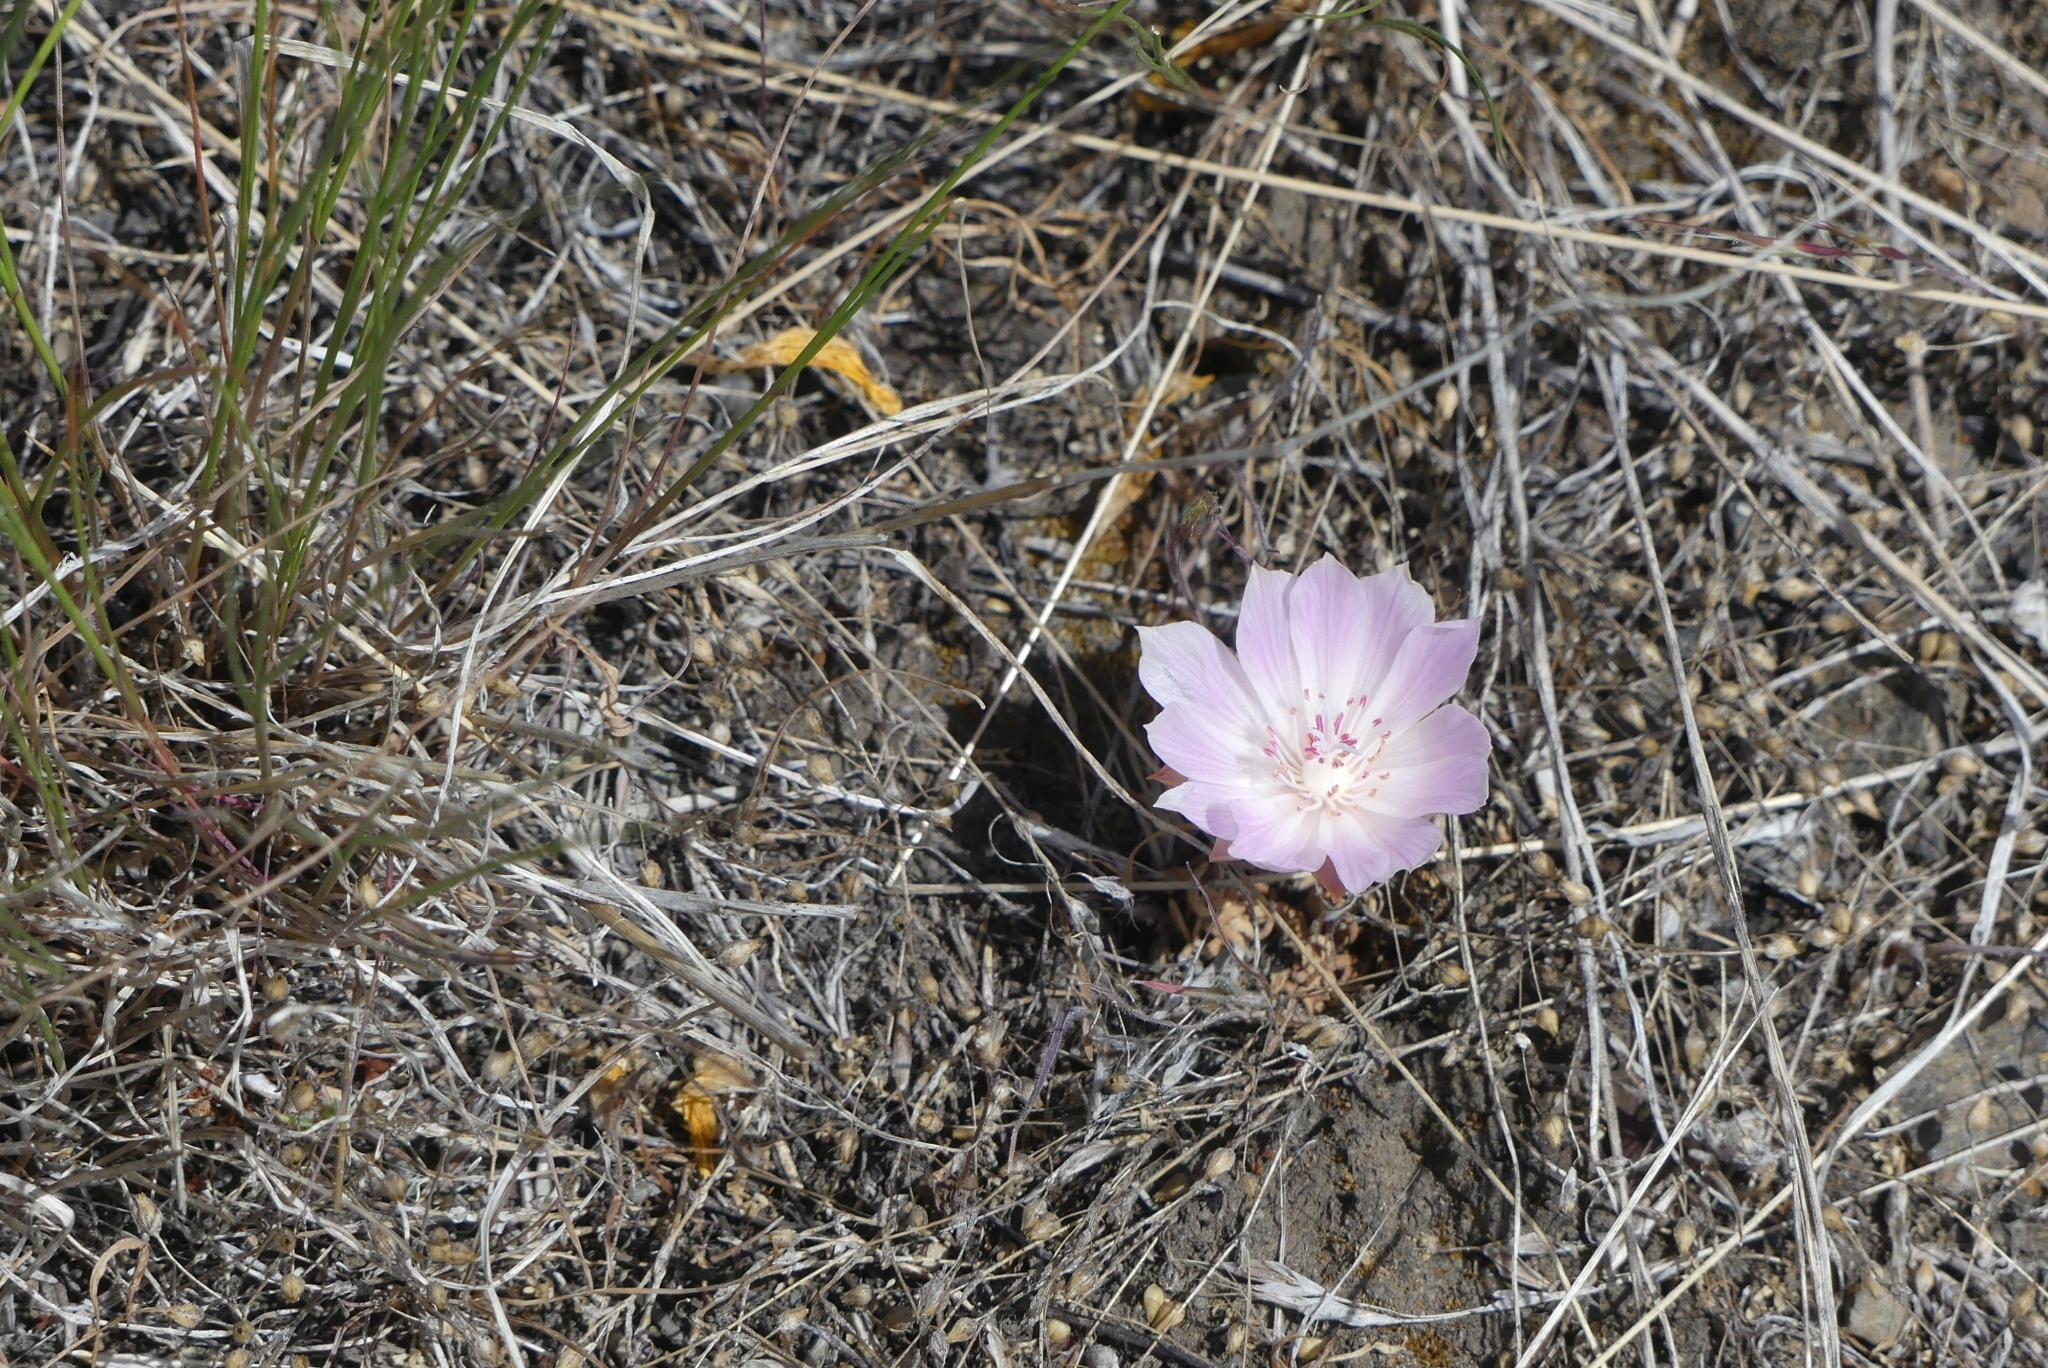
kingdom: Plantae
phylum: Tracheophyta
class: Magnoliopsida
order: Caryophyllales
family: Montiaceae
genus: Lewisia
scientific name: Lewisia rediviva
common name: Bitter-root
